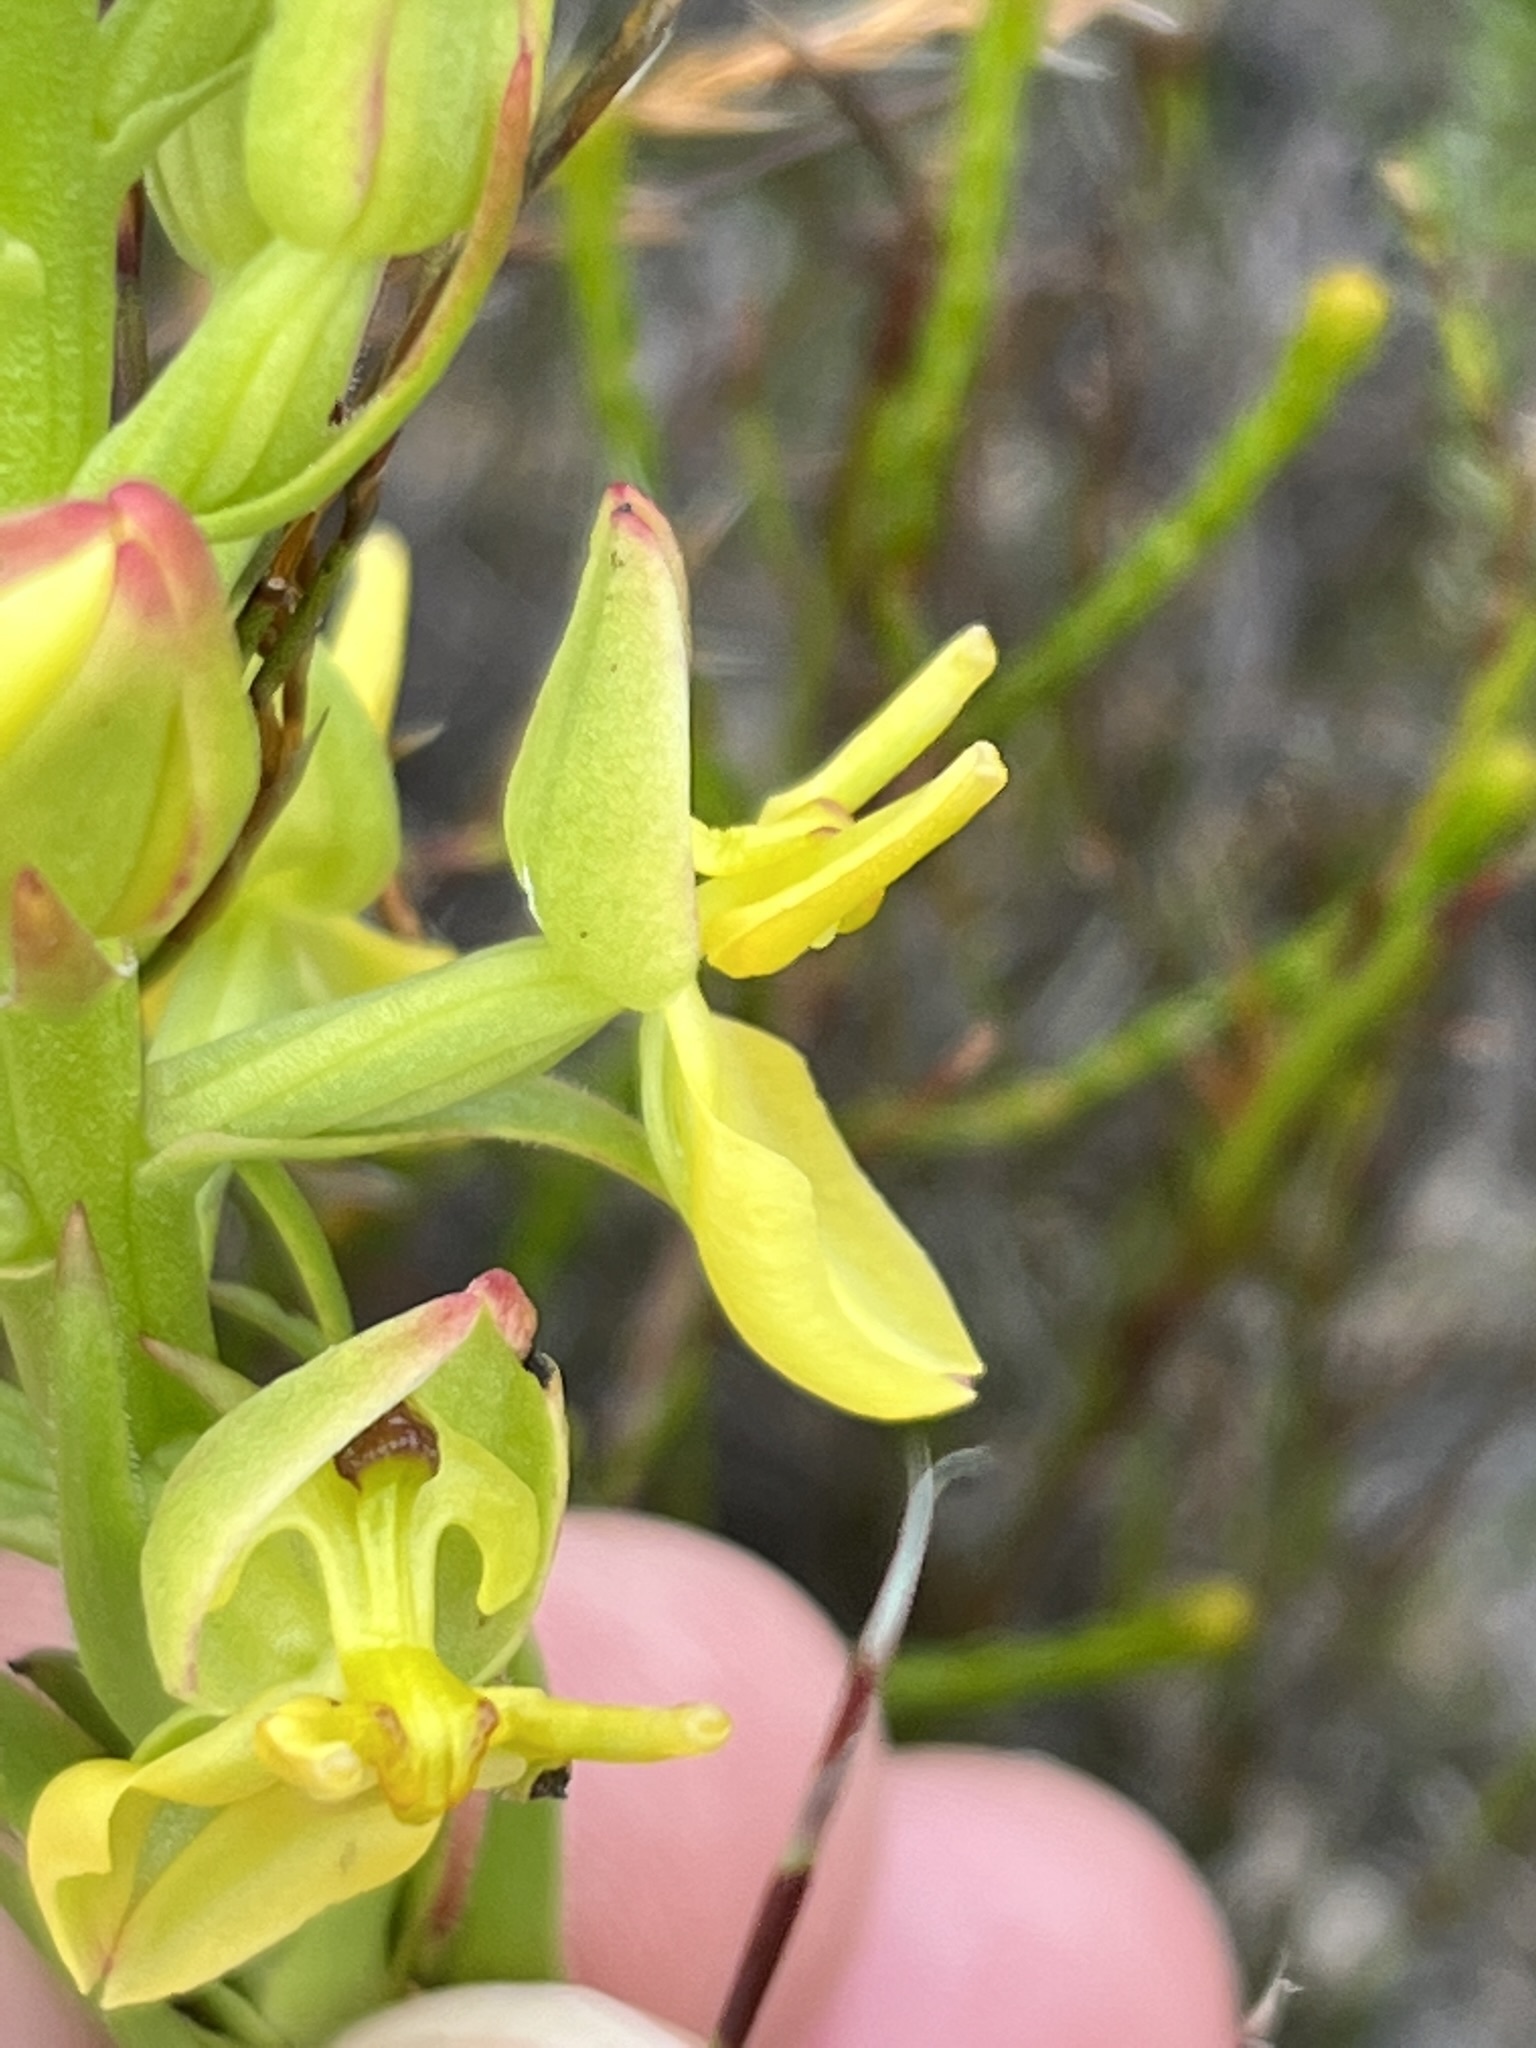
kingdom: Plantae
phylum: Tracheophyta
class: Liliopsida
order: Asparagales
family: Orchidaceae
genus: Ceratandra
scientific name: Ceratandra atrata
